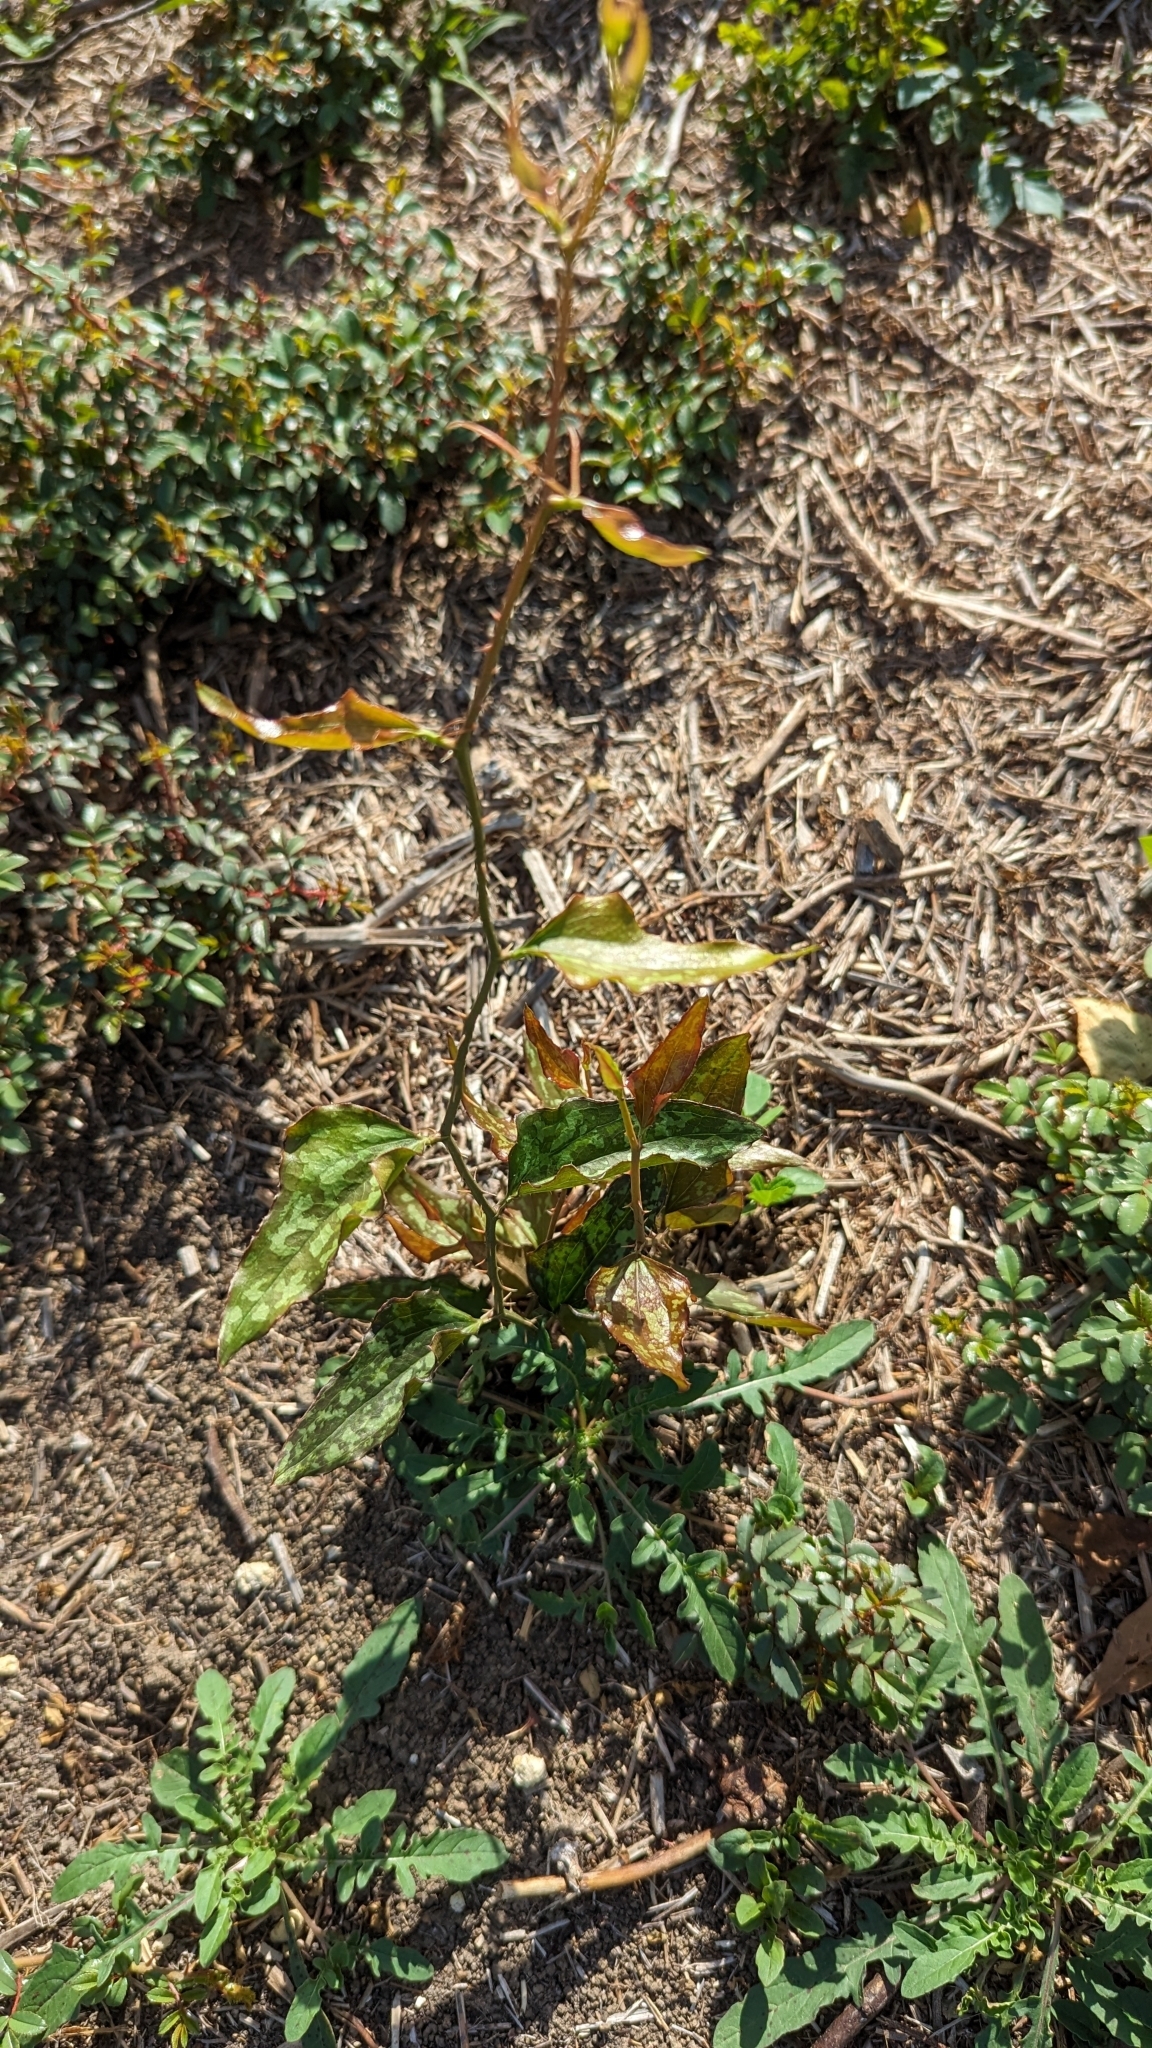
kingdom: Plantae
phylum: Tracheophyta
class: Liliopsida
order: Liliales
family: Smilacaceae
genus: Smilax
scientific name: Smilax bona-nox
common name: Catbrier
